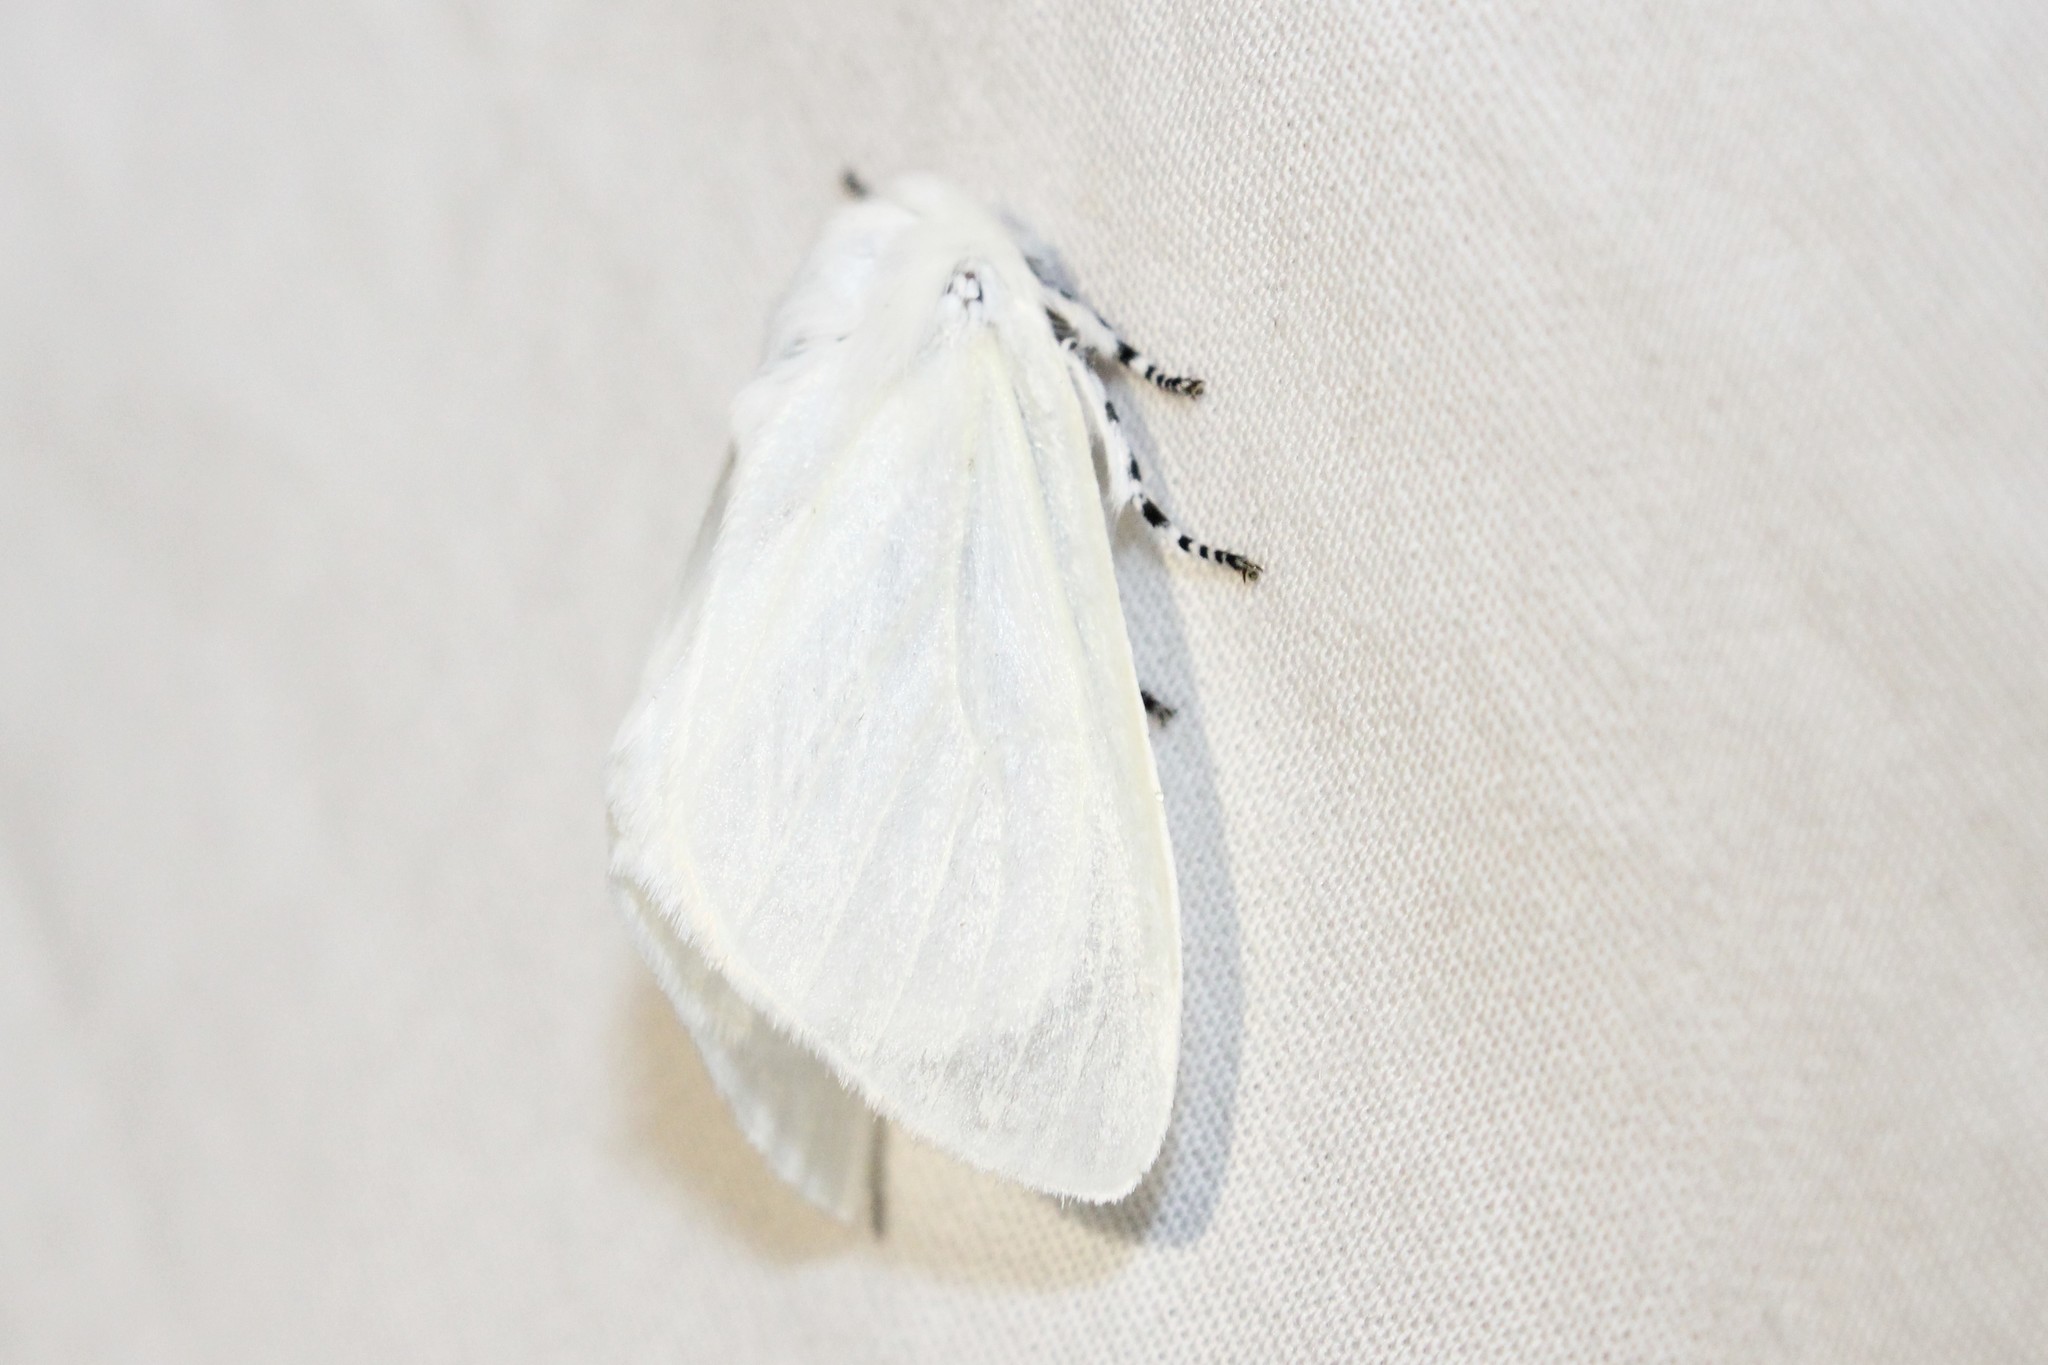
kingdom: Animalia
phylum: Arthropoda
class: Insecta
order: Lepidoptera
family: Erebidae
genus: Leucoma
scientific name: Leucoma salicis
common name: White satin moth
